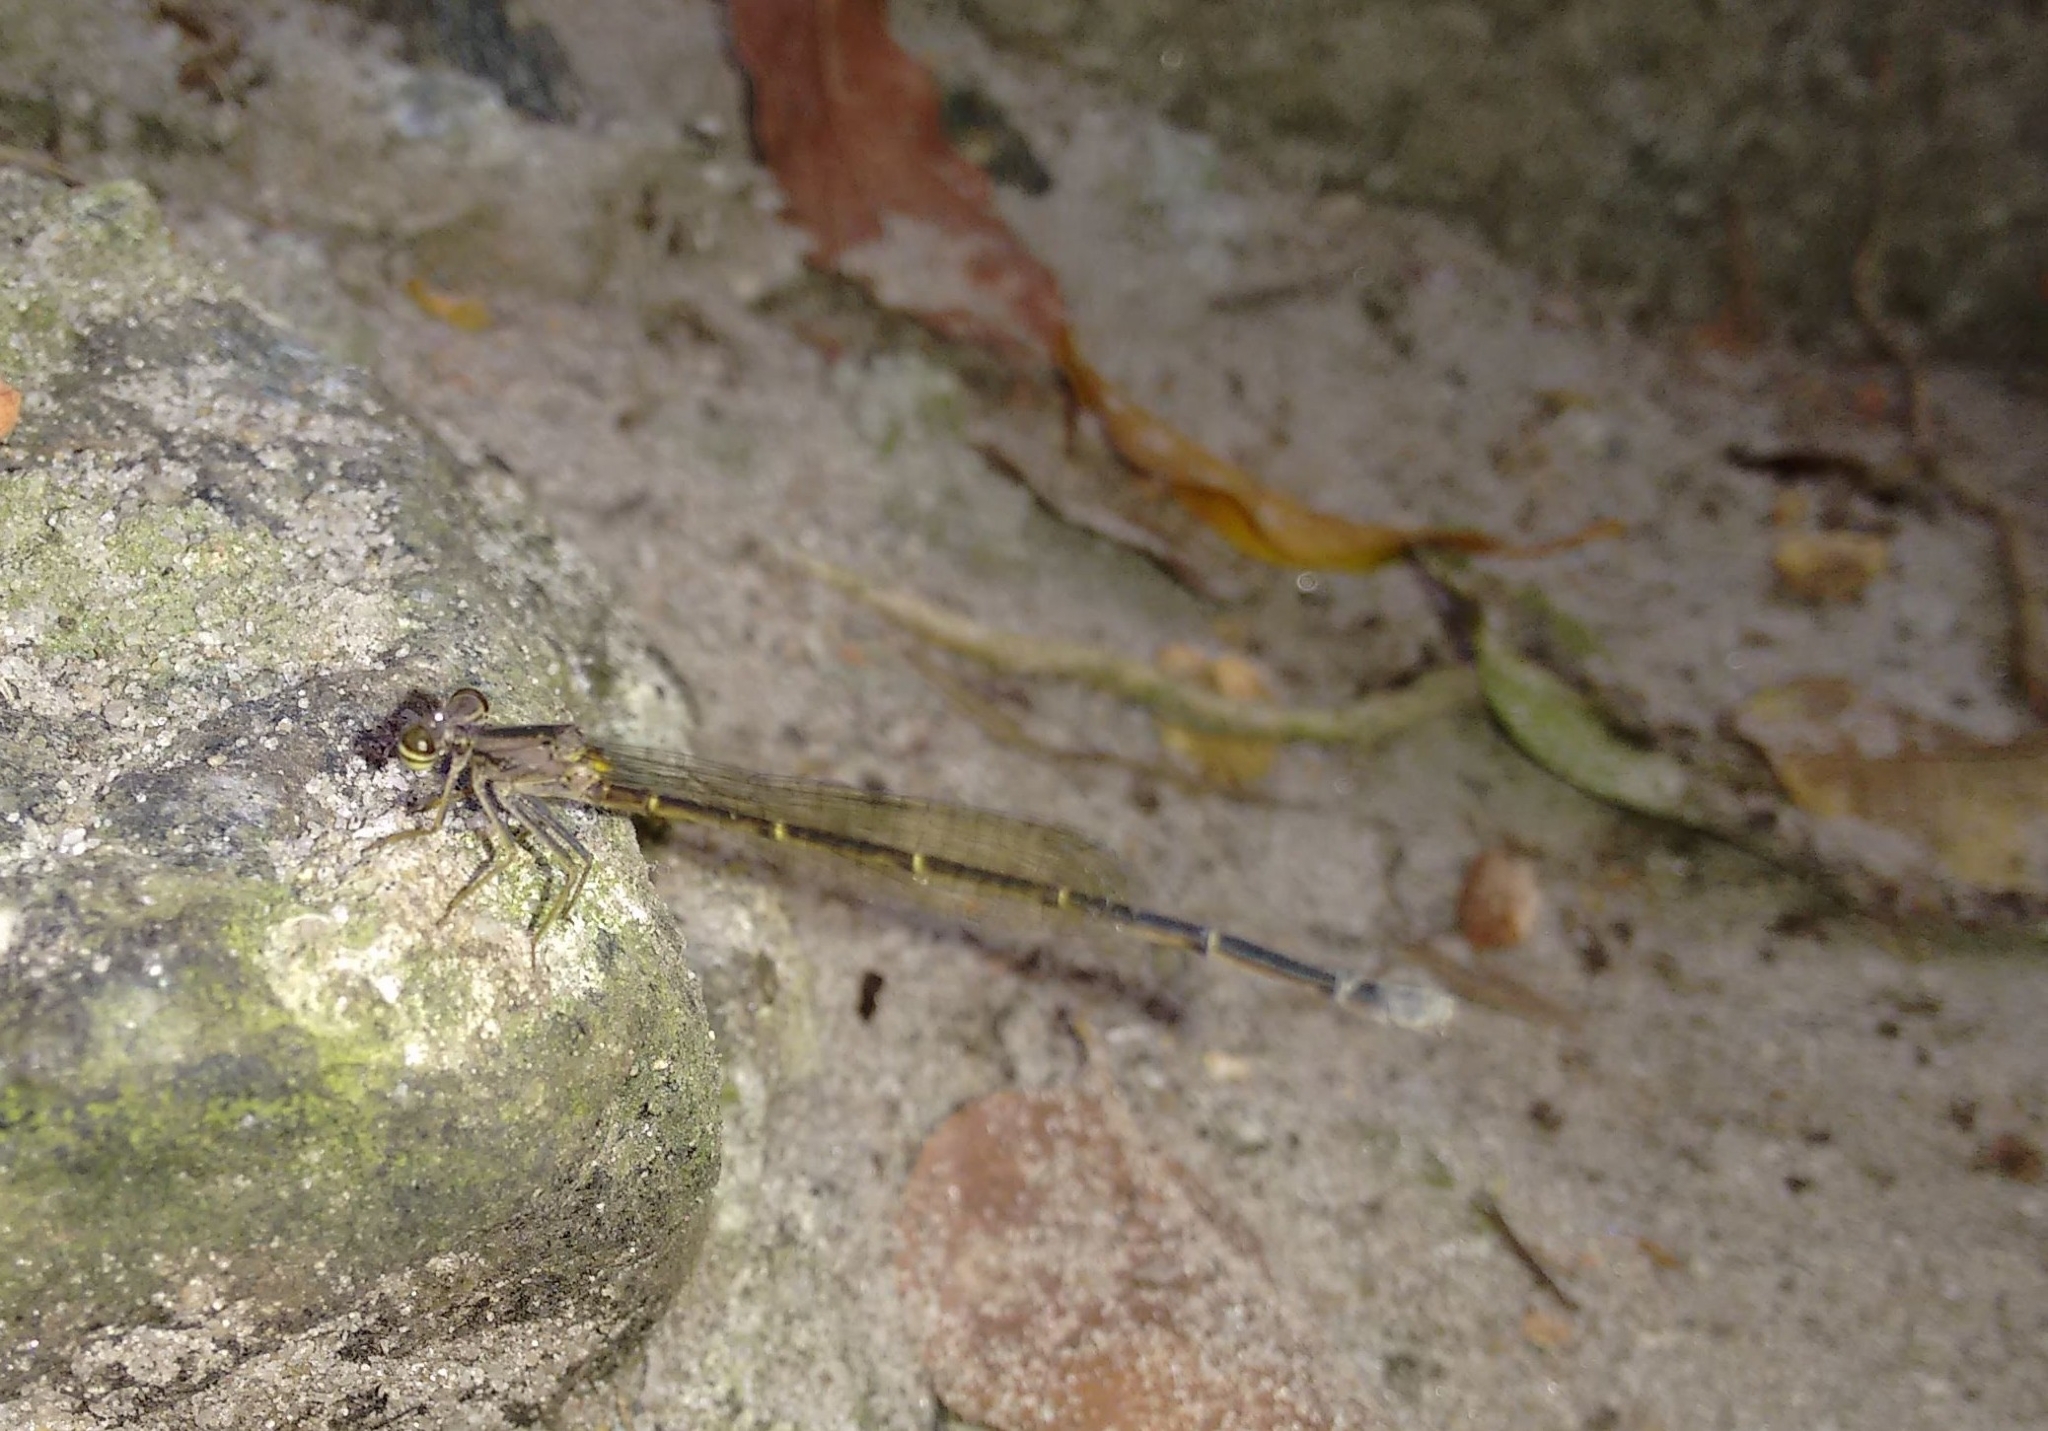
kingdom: Animalia
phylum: Arthropoda
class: Insecta
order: Odonata
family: Platycnemididae
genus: Copera
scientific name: Copera marginipes
